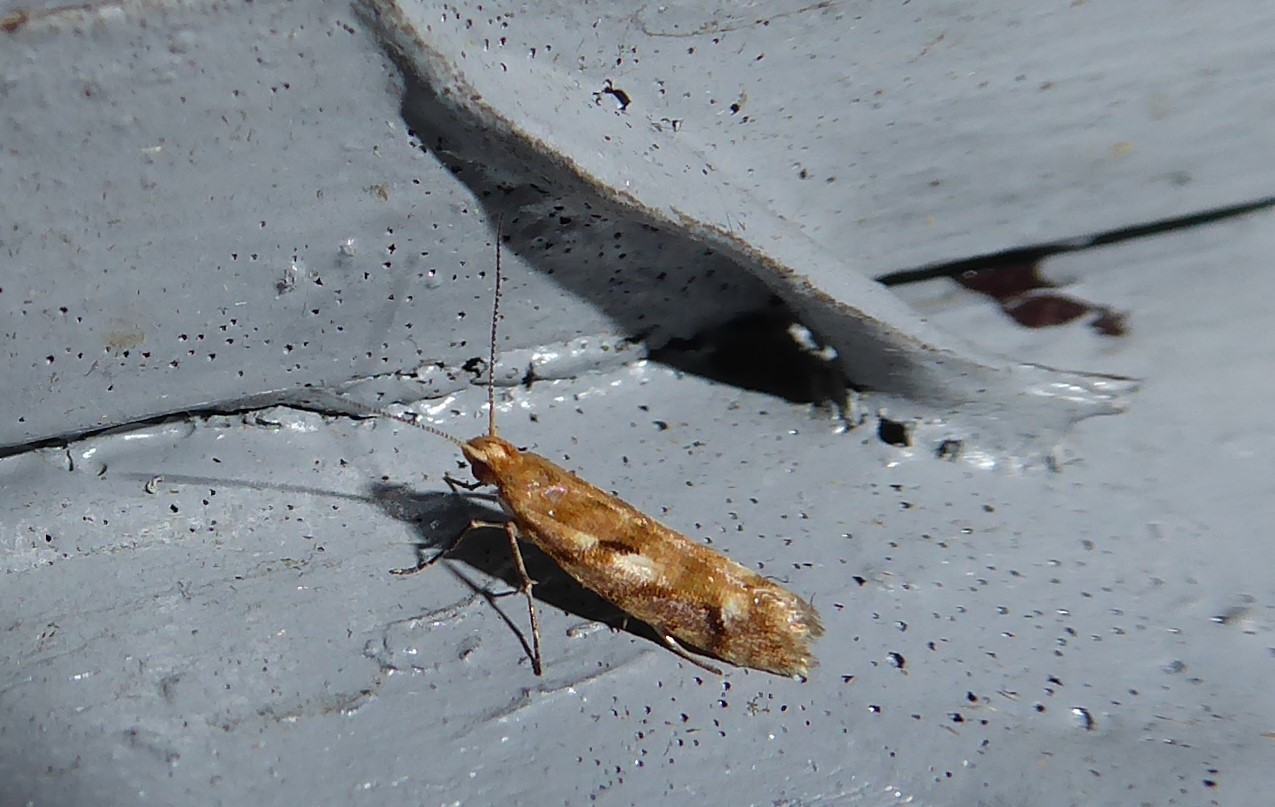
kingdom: Animalia
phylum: Arthropoda
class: Insecta
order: Lepidoptera
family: Glyphipterigidae
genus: Chrysorthenches
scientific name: Chrysorthenches virgata
